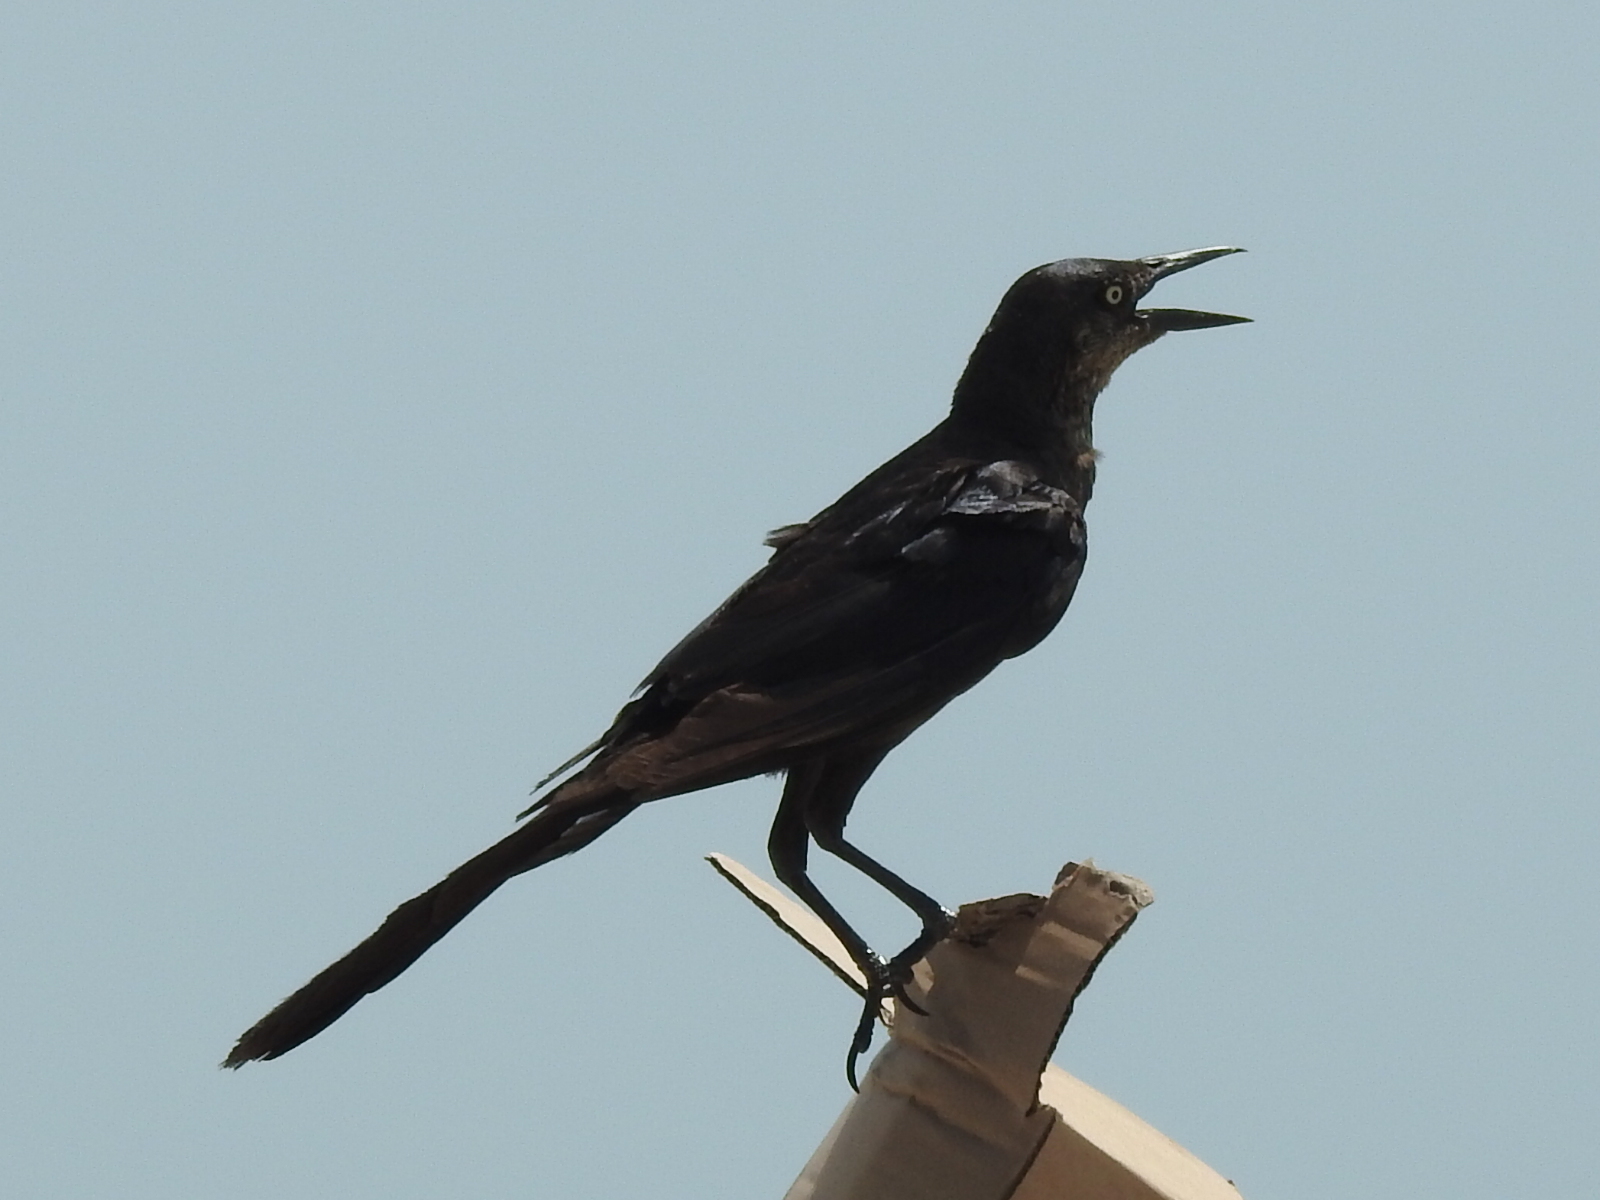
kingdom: Animalia
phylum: Chordata
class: Aves
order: Passeriformes
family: Icteridae
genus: Quiscalus
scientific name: Quiscalus mexicanus
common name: Great-tailed grackle
